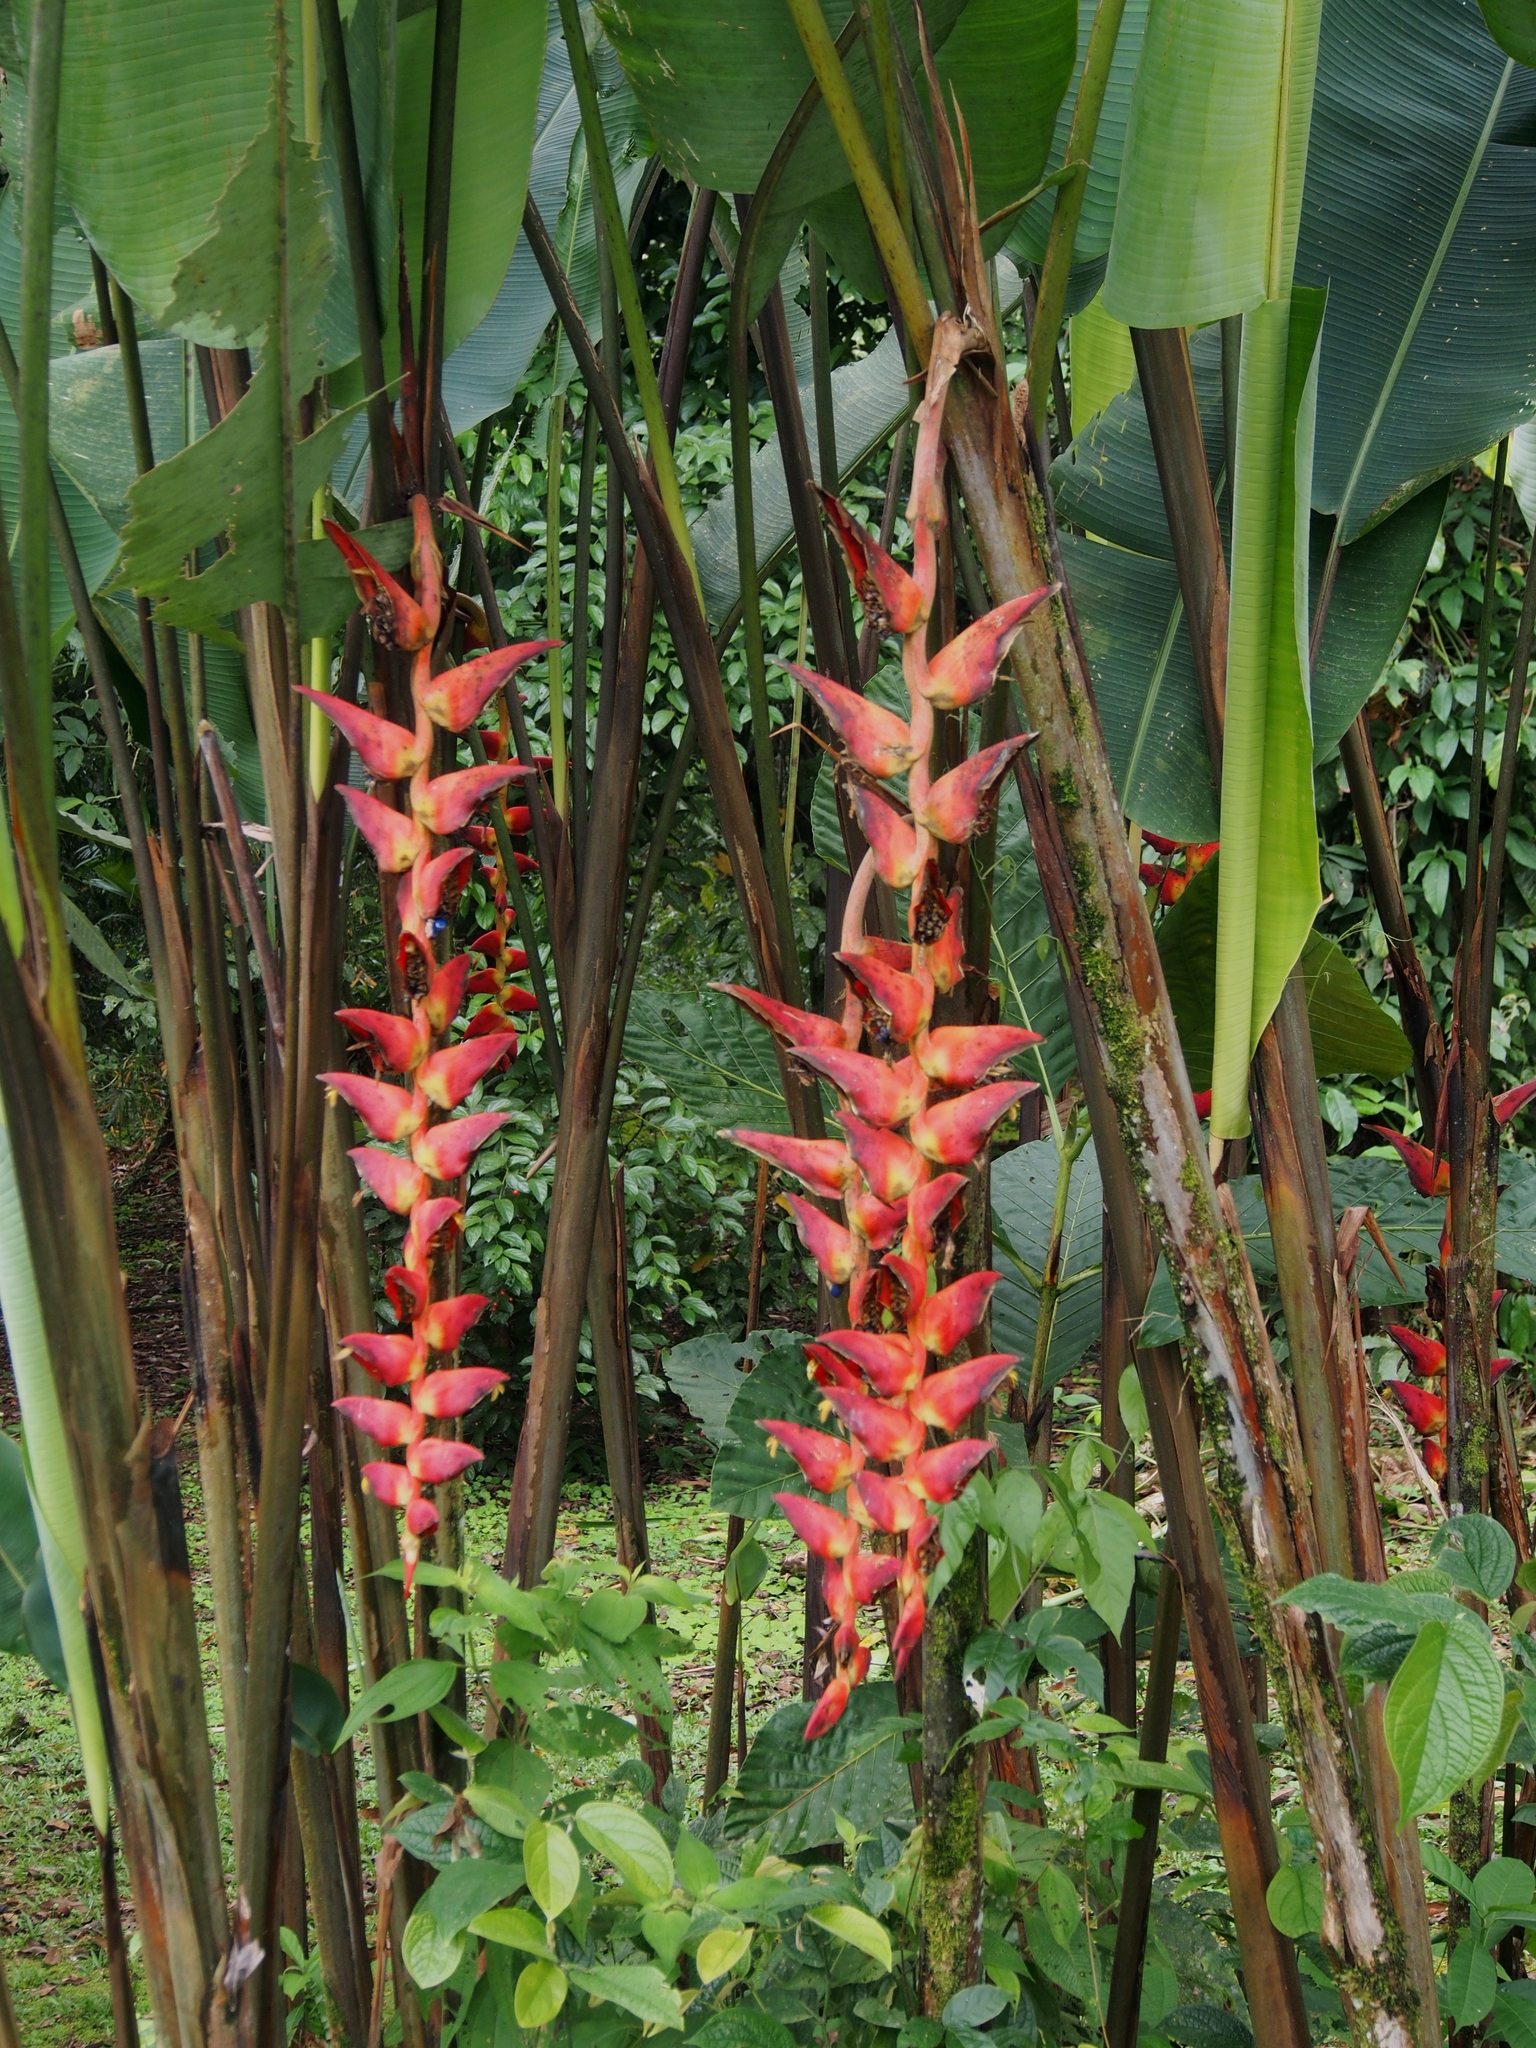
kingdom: Plantae
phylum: Tracheophyta
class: Liliopsida
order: Zingiberales
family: Heliconiaceae
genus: Heliconia
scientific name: Heliconia pogonantha
